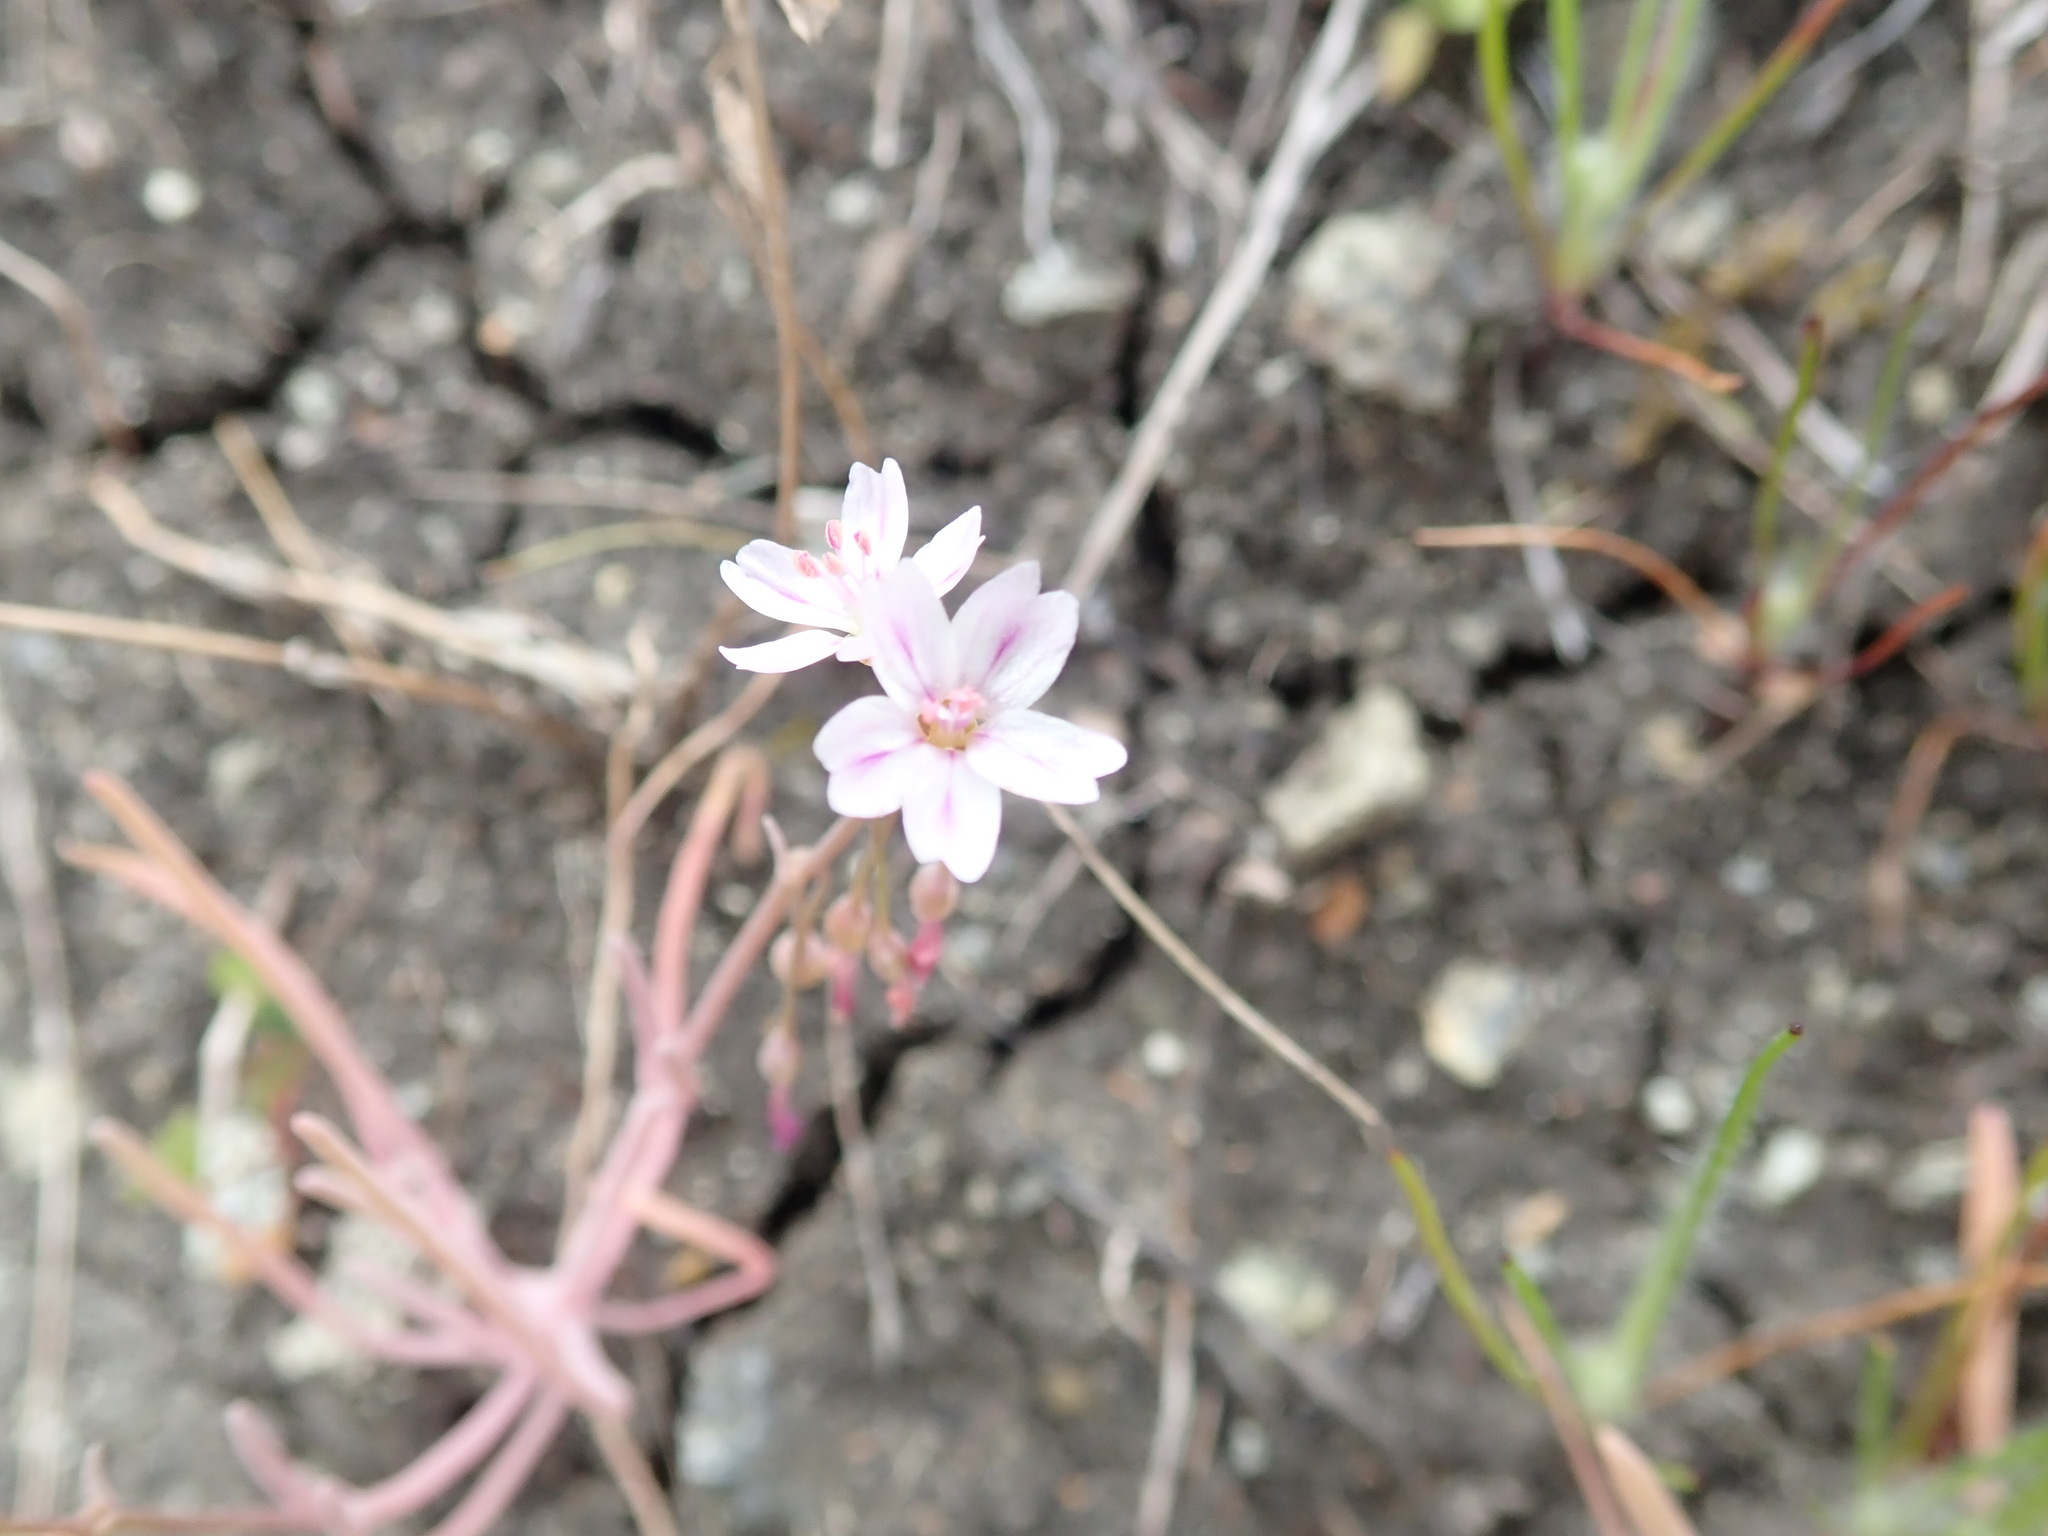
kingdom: Plantae
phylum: Tracheophyta
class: Magnoliopsida
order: Caryophyllales
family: Montiaceae
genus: Claytonia
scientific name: Claytonia gypsophiloides
